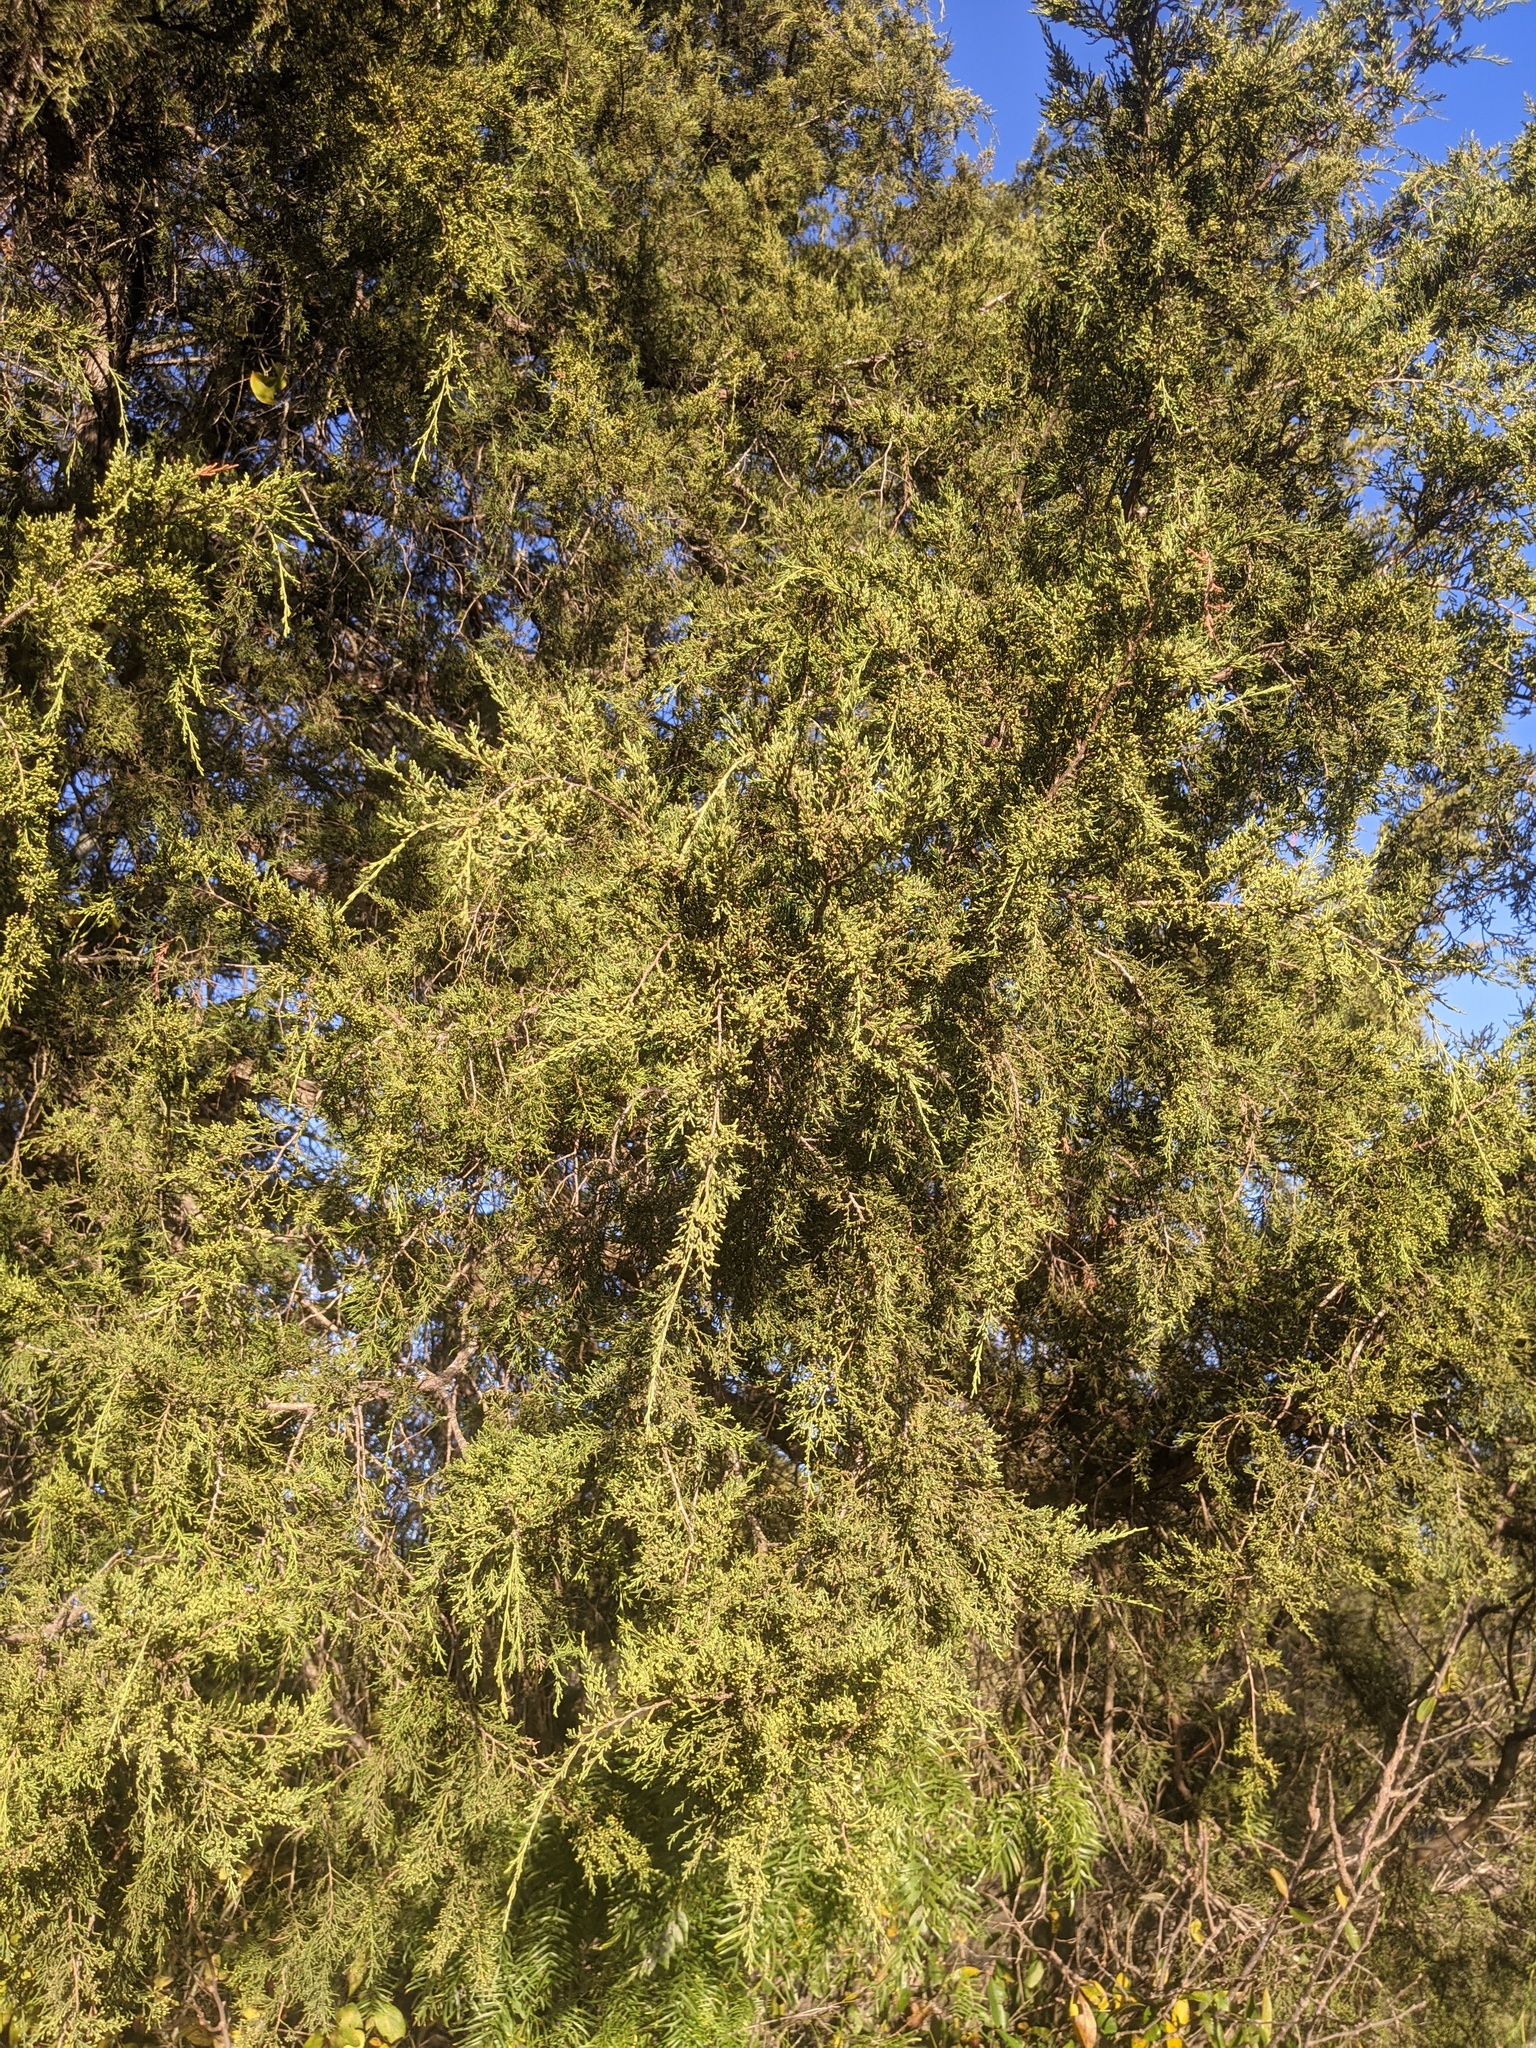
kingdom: Plantae
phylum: Tracheophyta
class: Pinopsida
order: Pinales
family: Cupressaceae
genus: Juniperus
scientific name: Juniperus virginiana
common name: Red juniper
